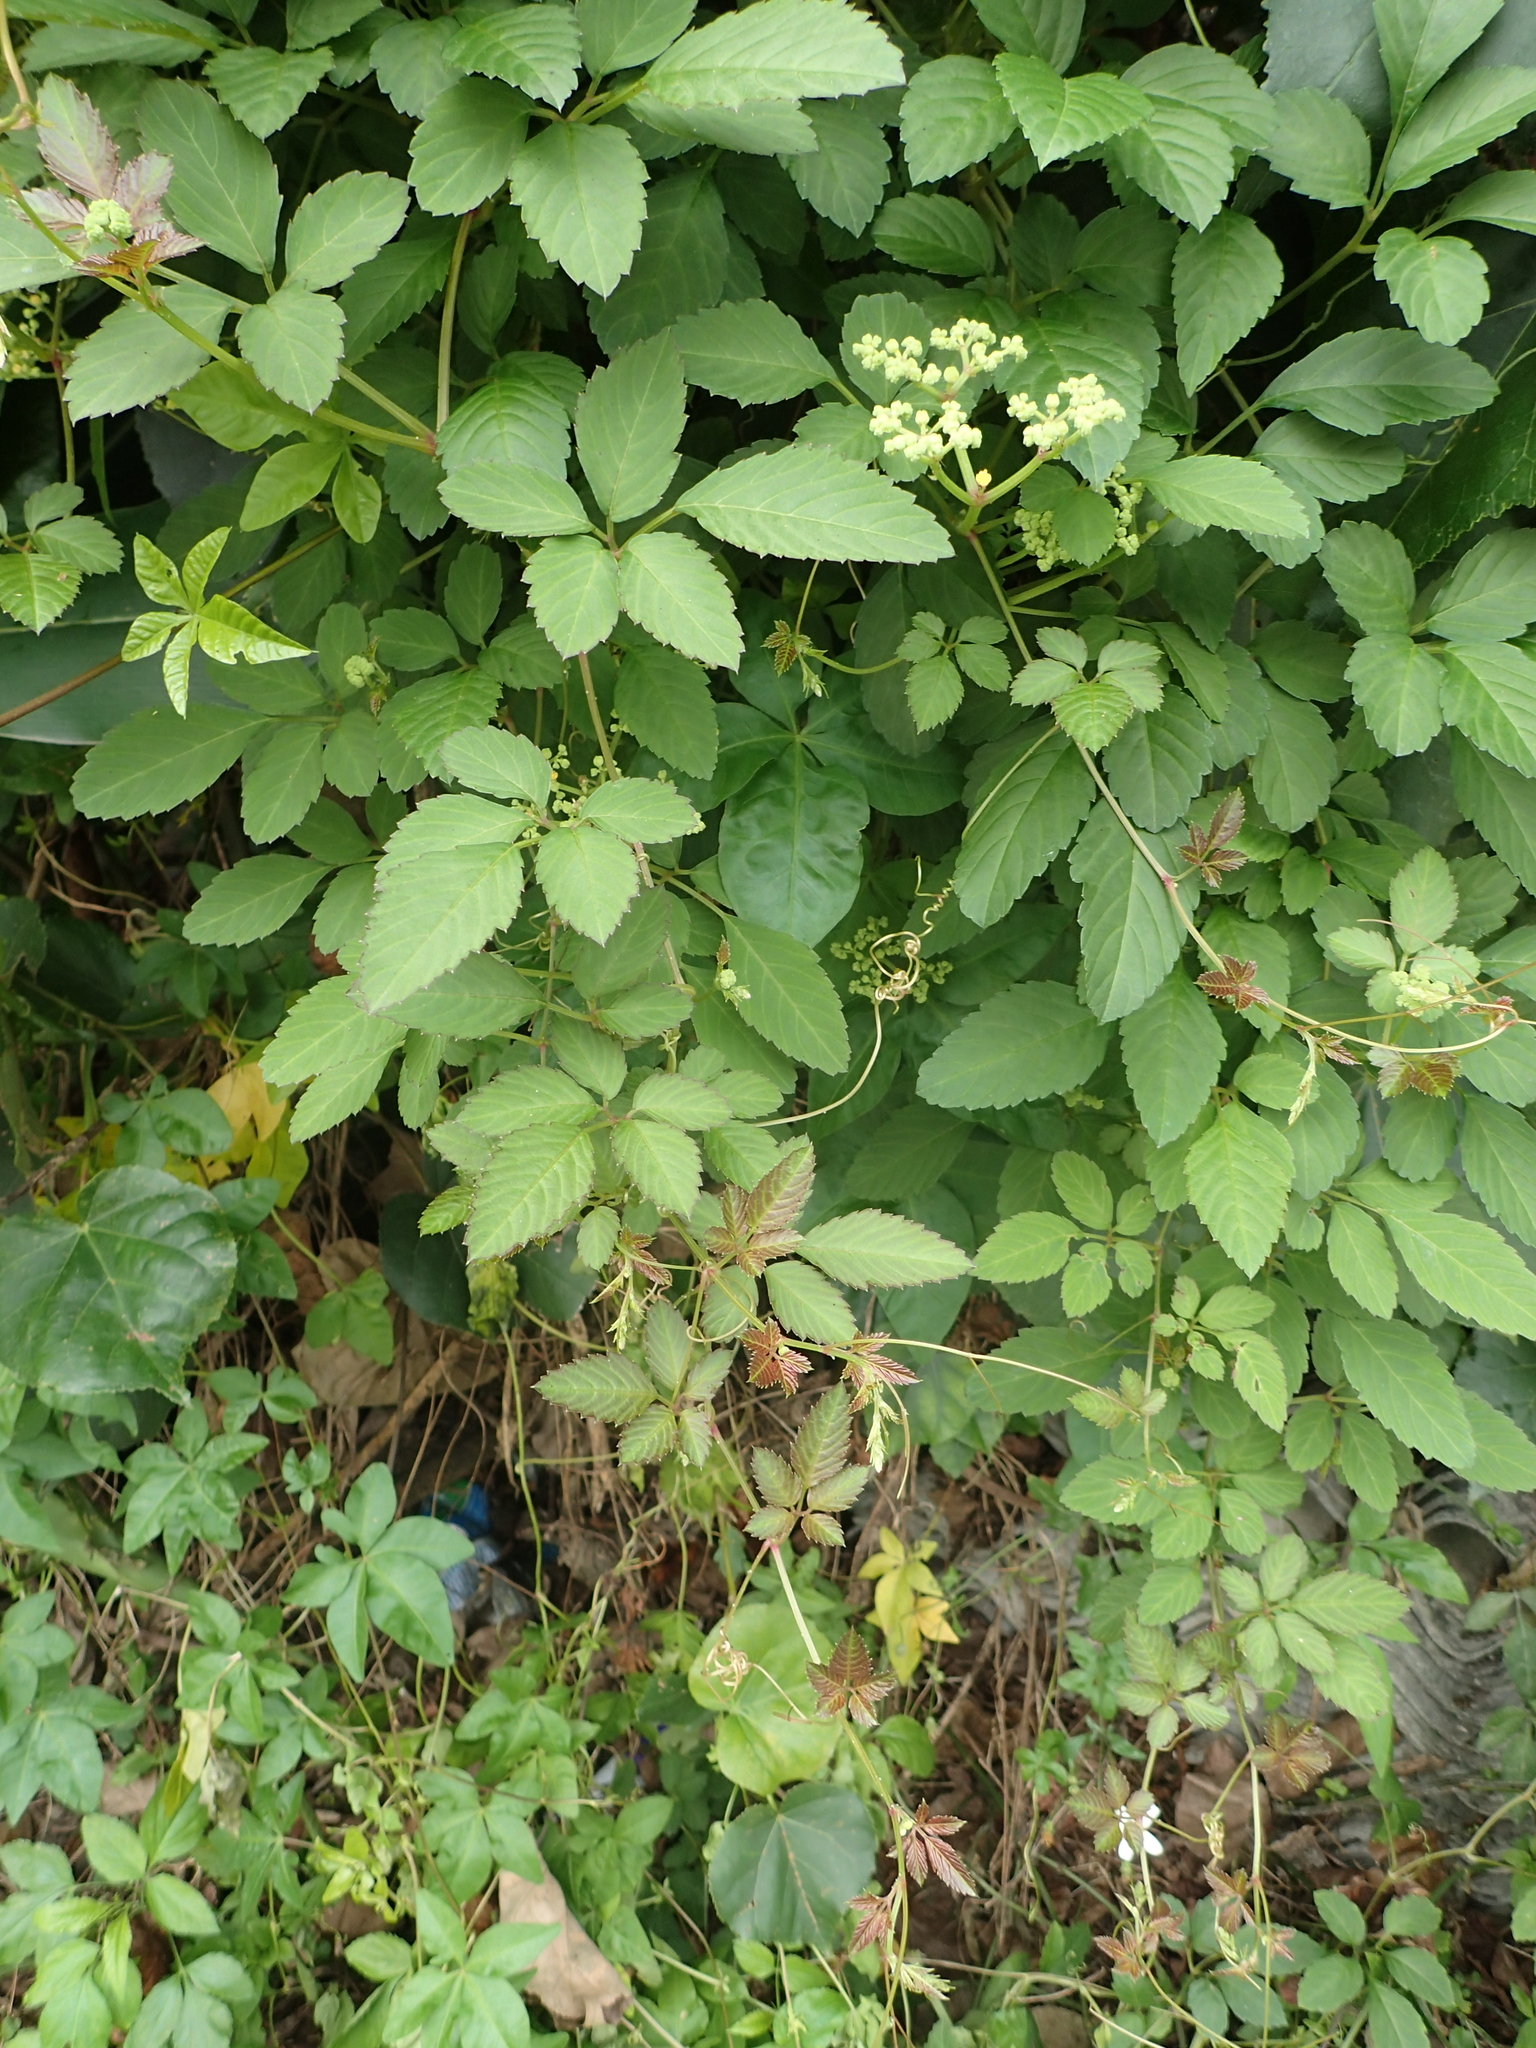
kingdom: Plantae
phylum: Tracheophyta
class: Magnoliopsida
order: Vitales
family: Vitaceae
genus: Causonis
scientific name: Causonis japonica
